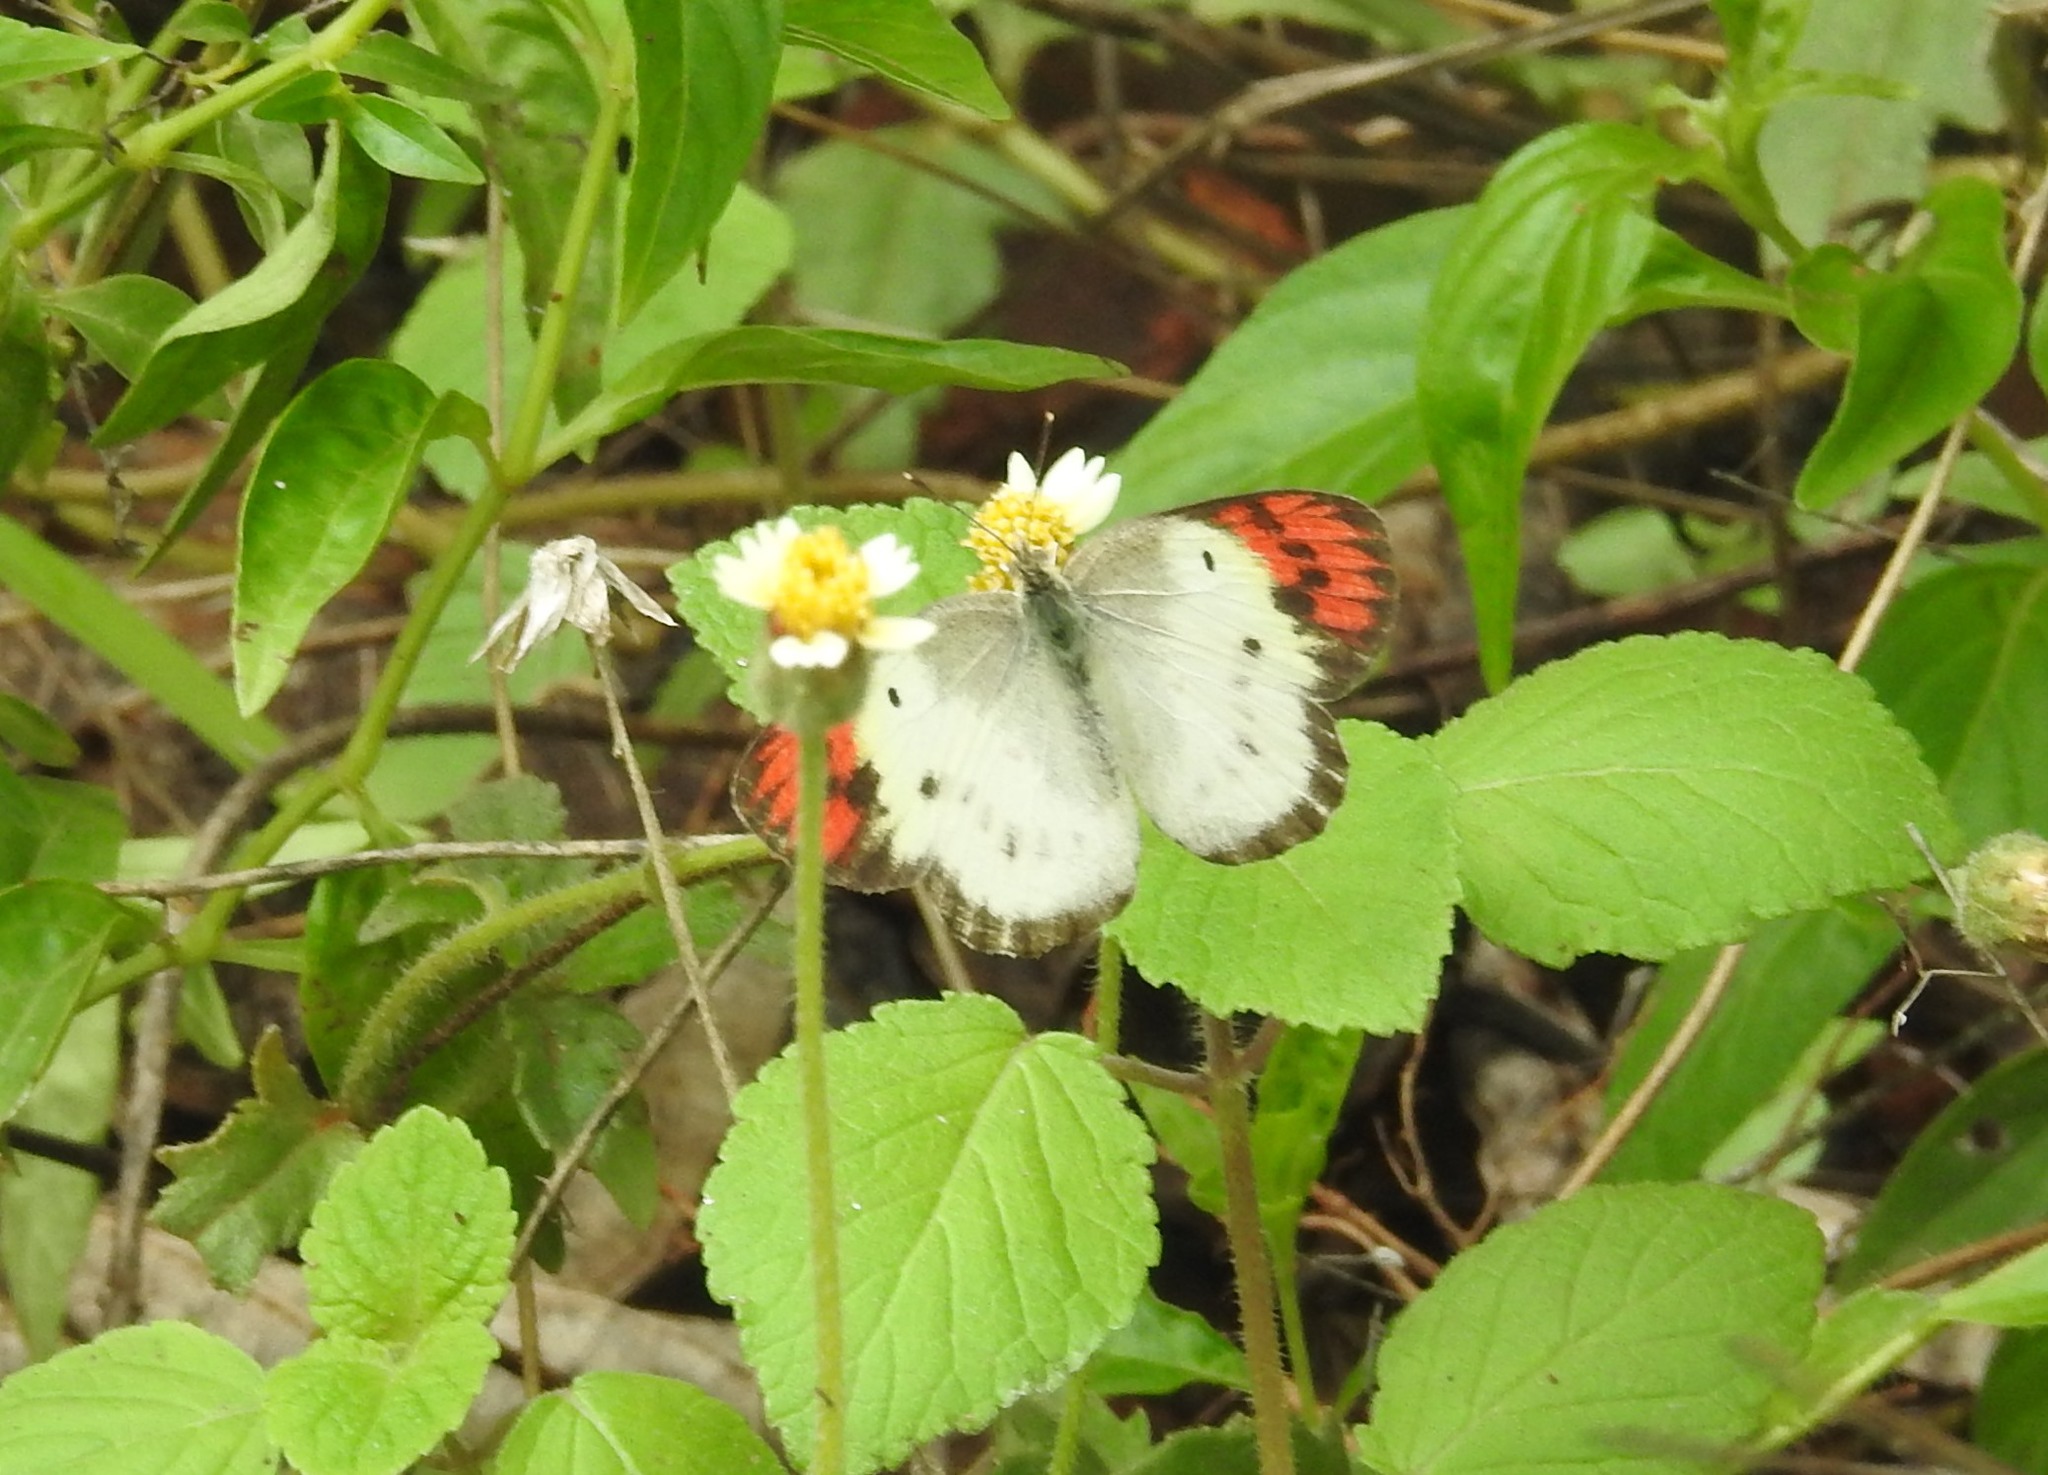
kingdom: Animalia
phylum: Arthropoda
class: Insecta
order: Lepidoptera
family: Pieridae
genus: Colotis
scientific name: Colotis danae
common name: Crimson tip
